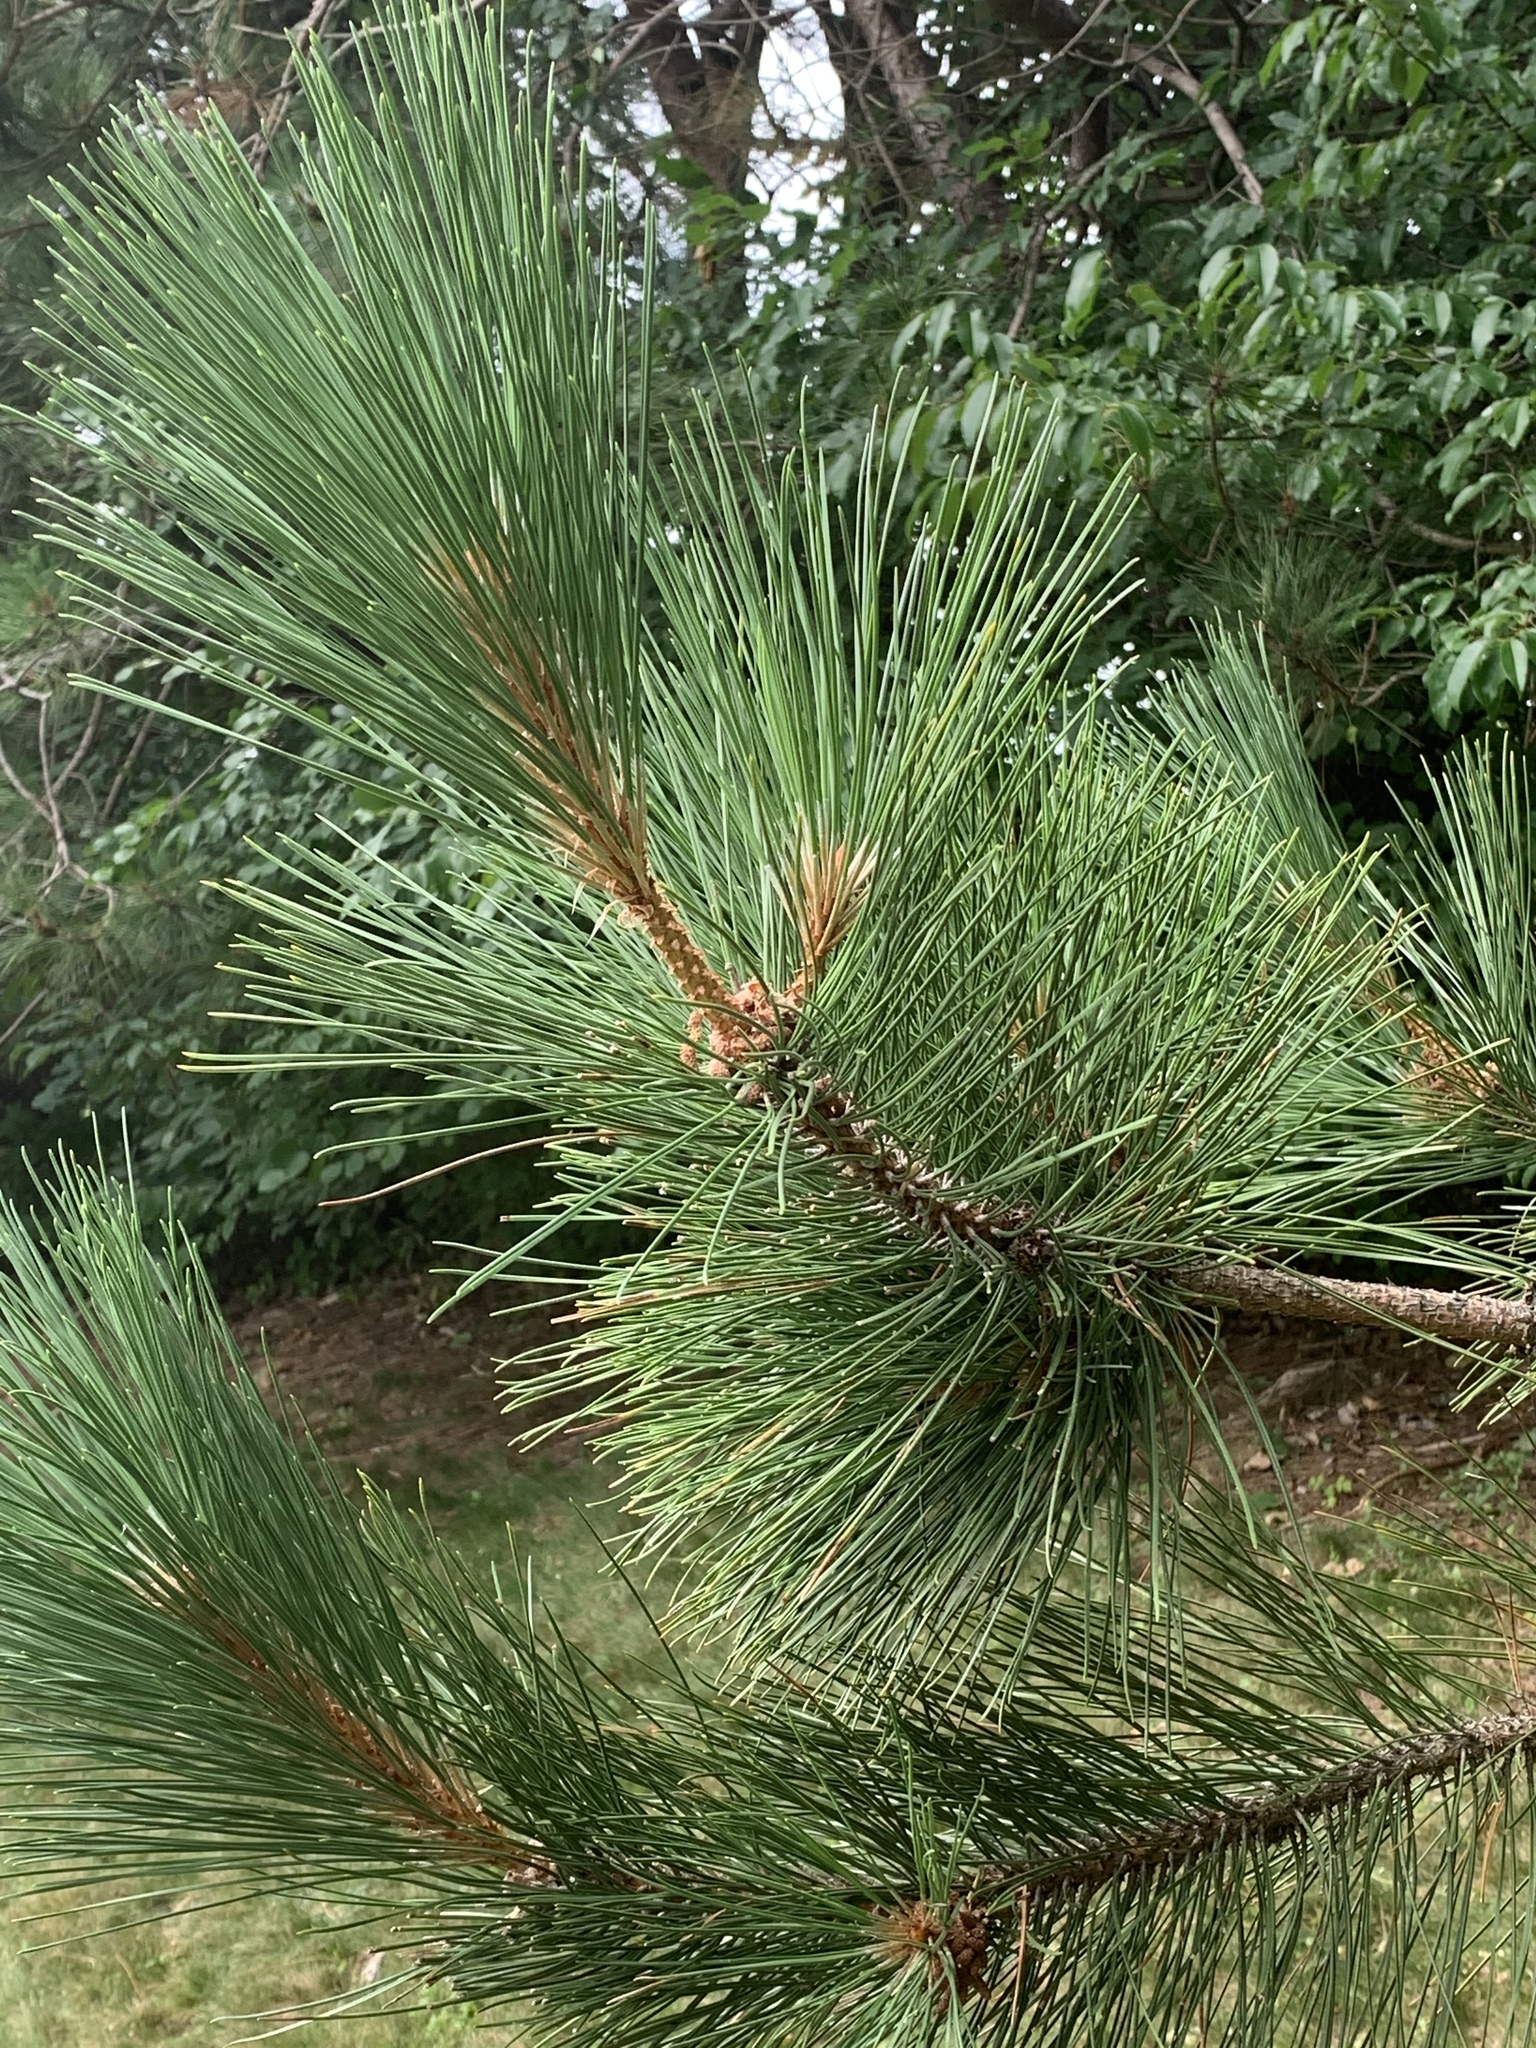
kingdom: Plantae
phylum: Tracheophyta
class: Pinopsida
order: Pinales
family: Pinaceae
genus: Pinus
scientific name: Pinus resinosa
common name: Norway pine
